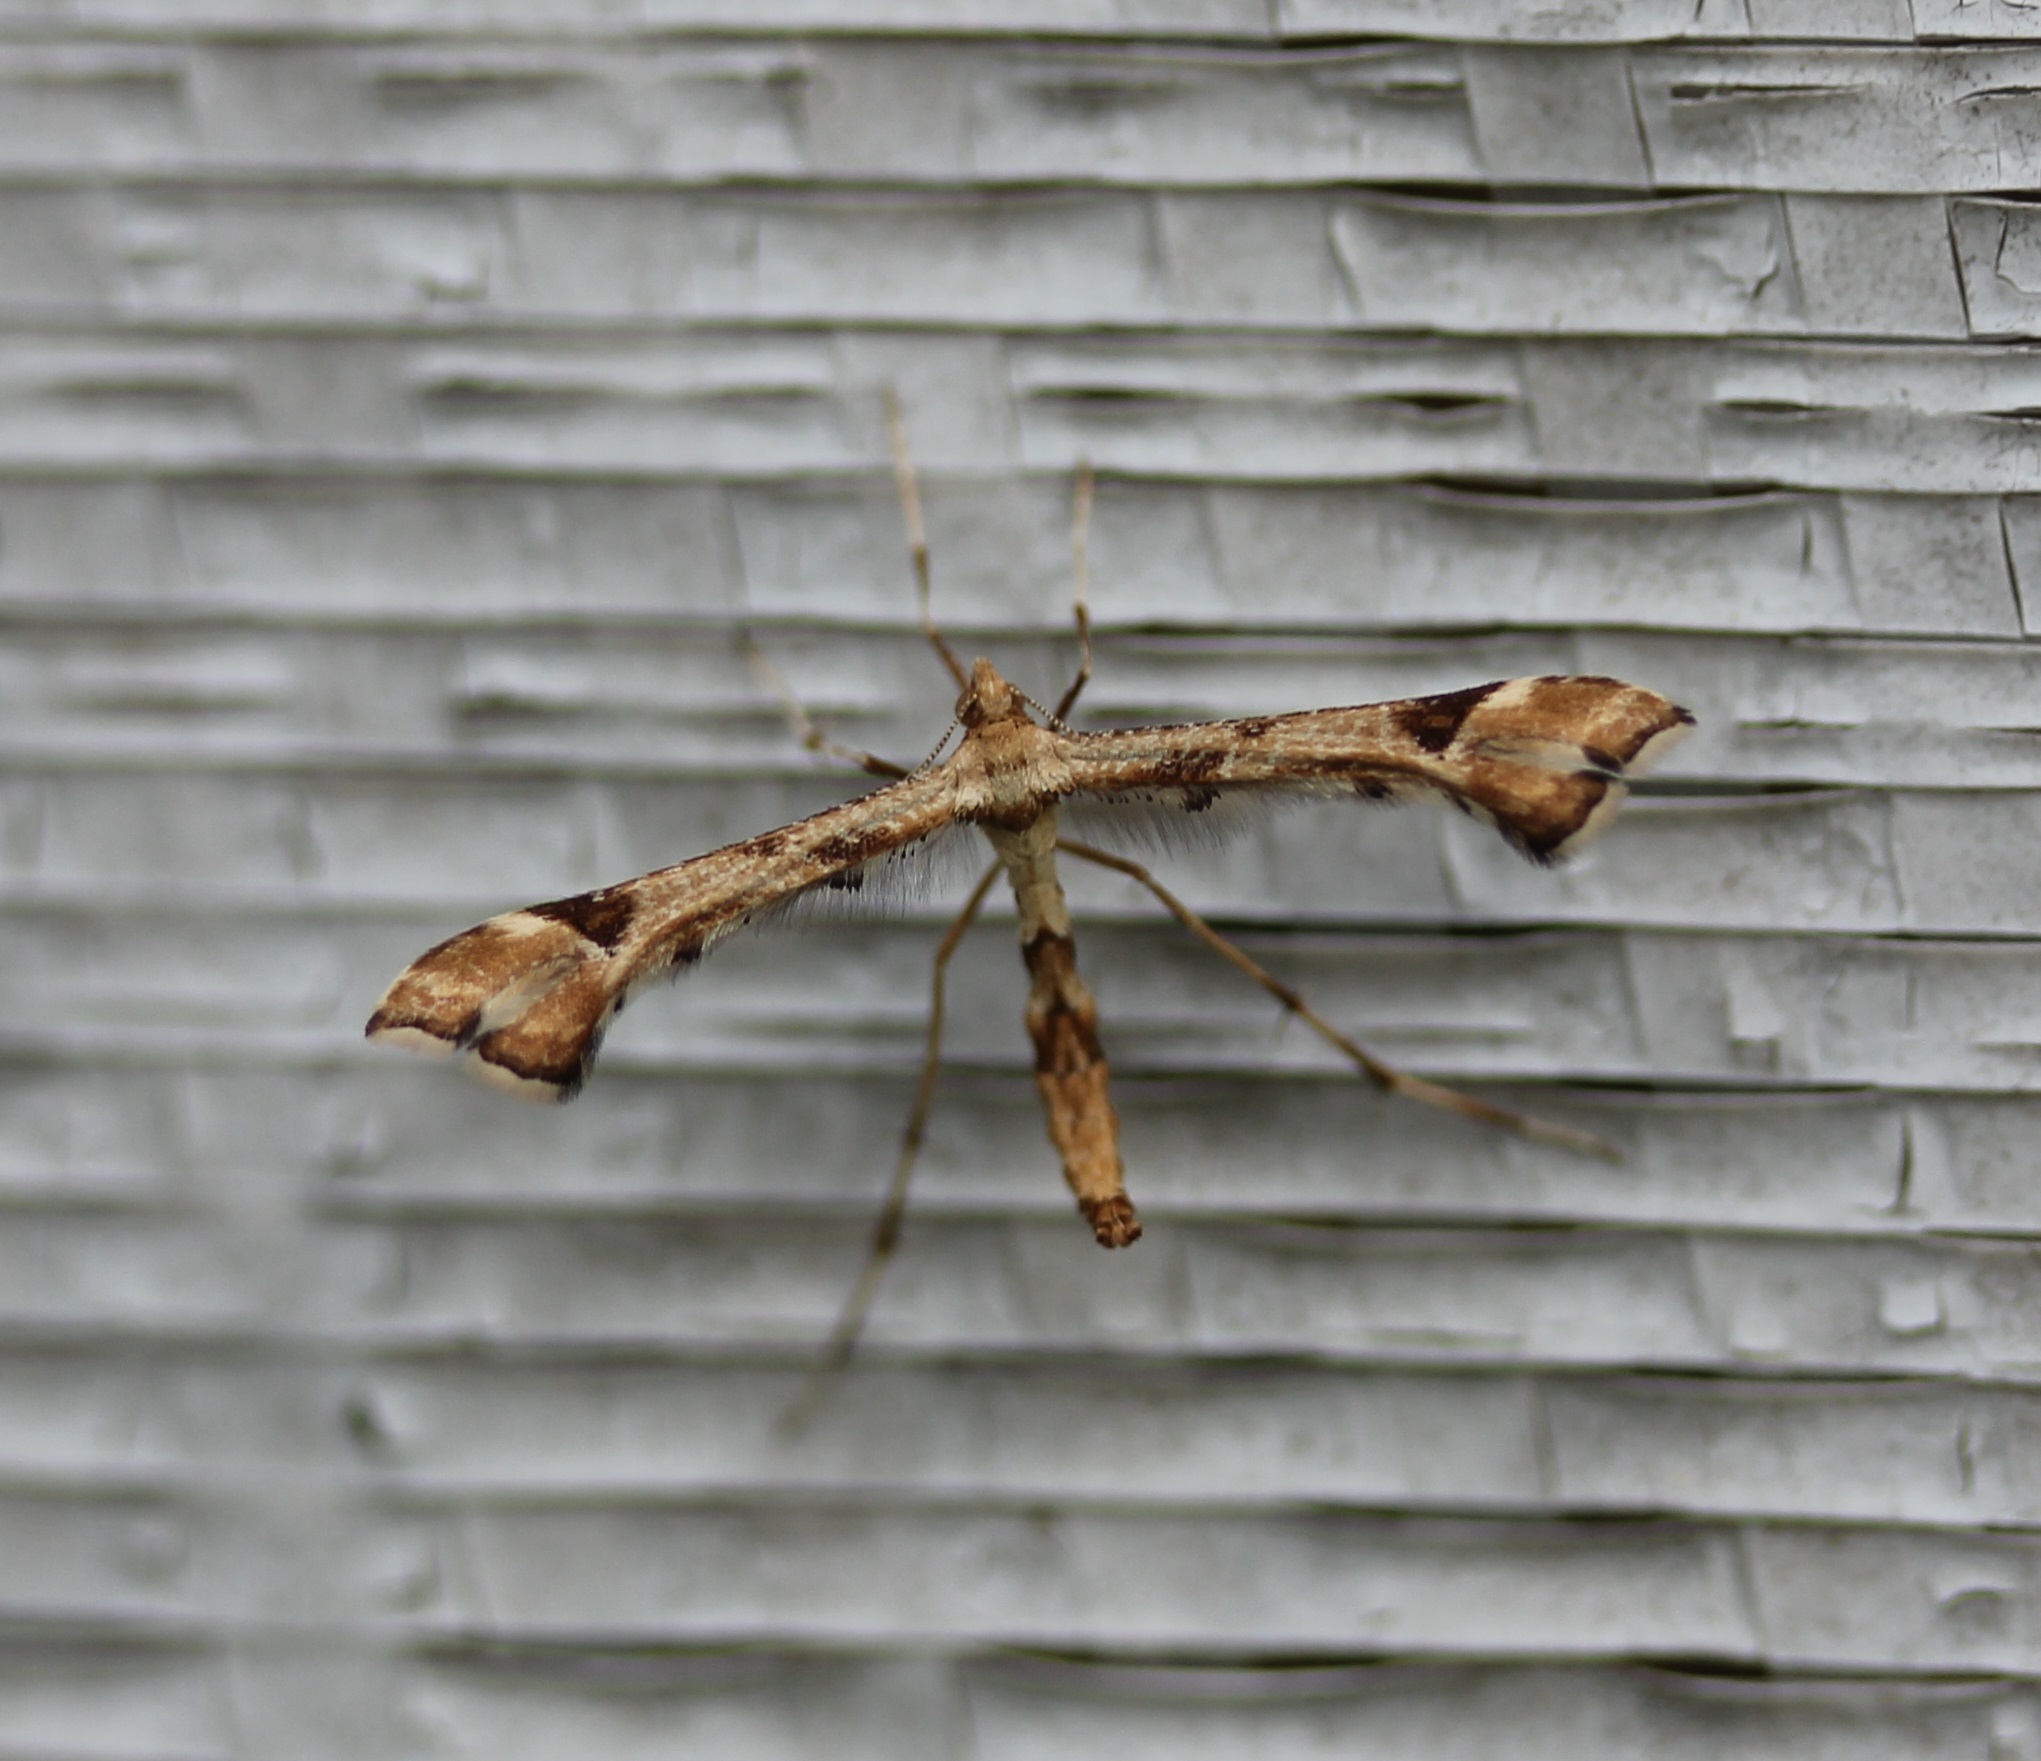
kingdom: Animalia
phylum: Arthropoda
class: Insecta
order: Lepidoptera
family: Pterophoridae
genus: Platyptilia
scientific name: Platyptilia carduidactylus
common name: Artichoke plume moth
